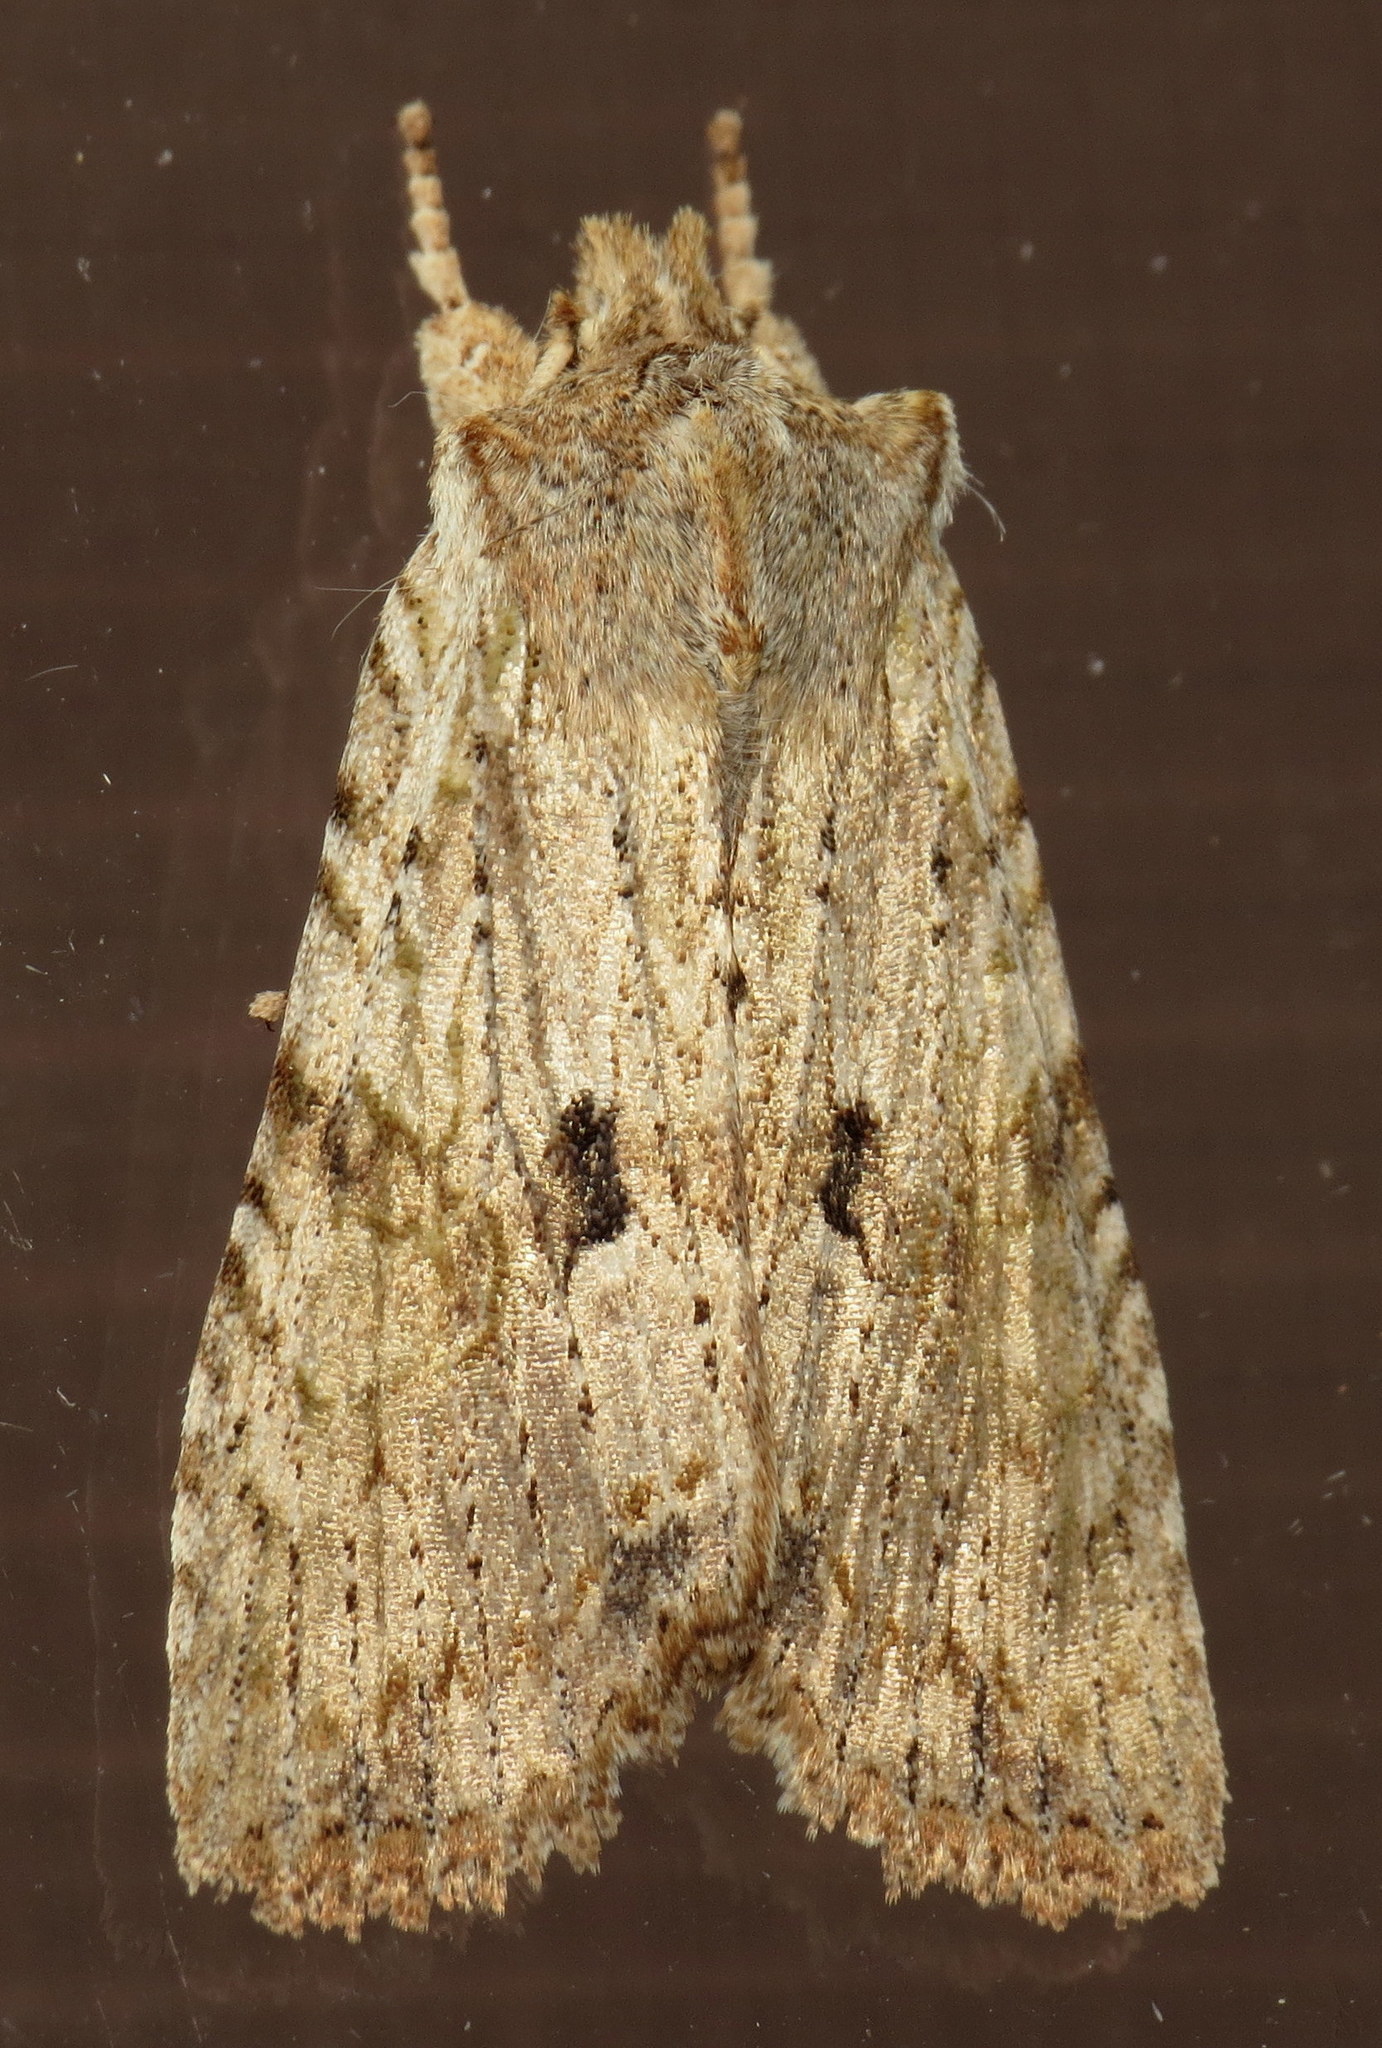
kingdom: Animalia
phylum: Arthropoda
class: Insecta
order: Lepidoptera
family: Noctuidae
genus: Lithophane
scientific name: Lithophane patefacta
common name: Dimorphic pinion moth
